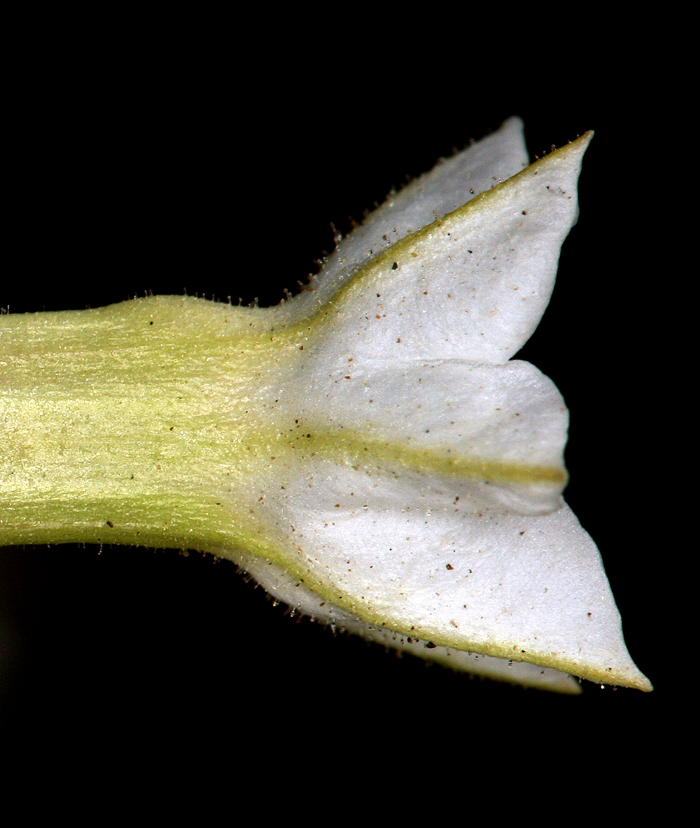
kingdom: Plantae
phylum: Tracheophyta
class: Magnoliopsida
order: Solanales
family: Solanaceae
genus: Nicotiana
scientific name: Nicotiana attenuata
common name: Coyote tobacco
